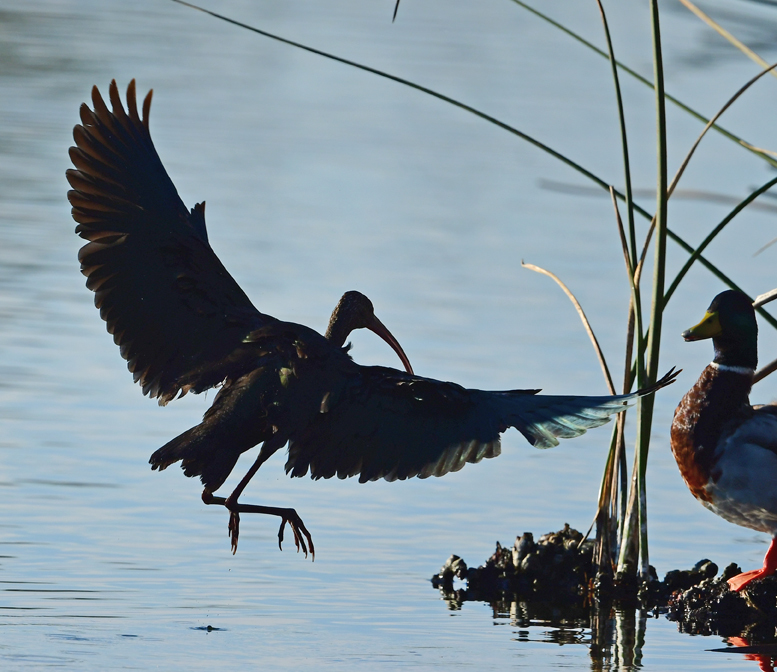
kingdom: Animalia
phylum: Chordata
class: Aves
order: Pelecaniformes
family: Threskiornithidae
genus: Plegadis
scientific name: Plegadis chihi
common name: White-faced ibis
